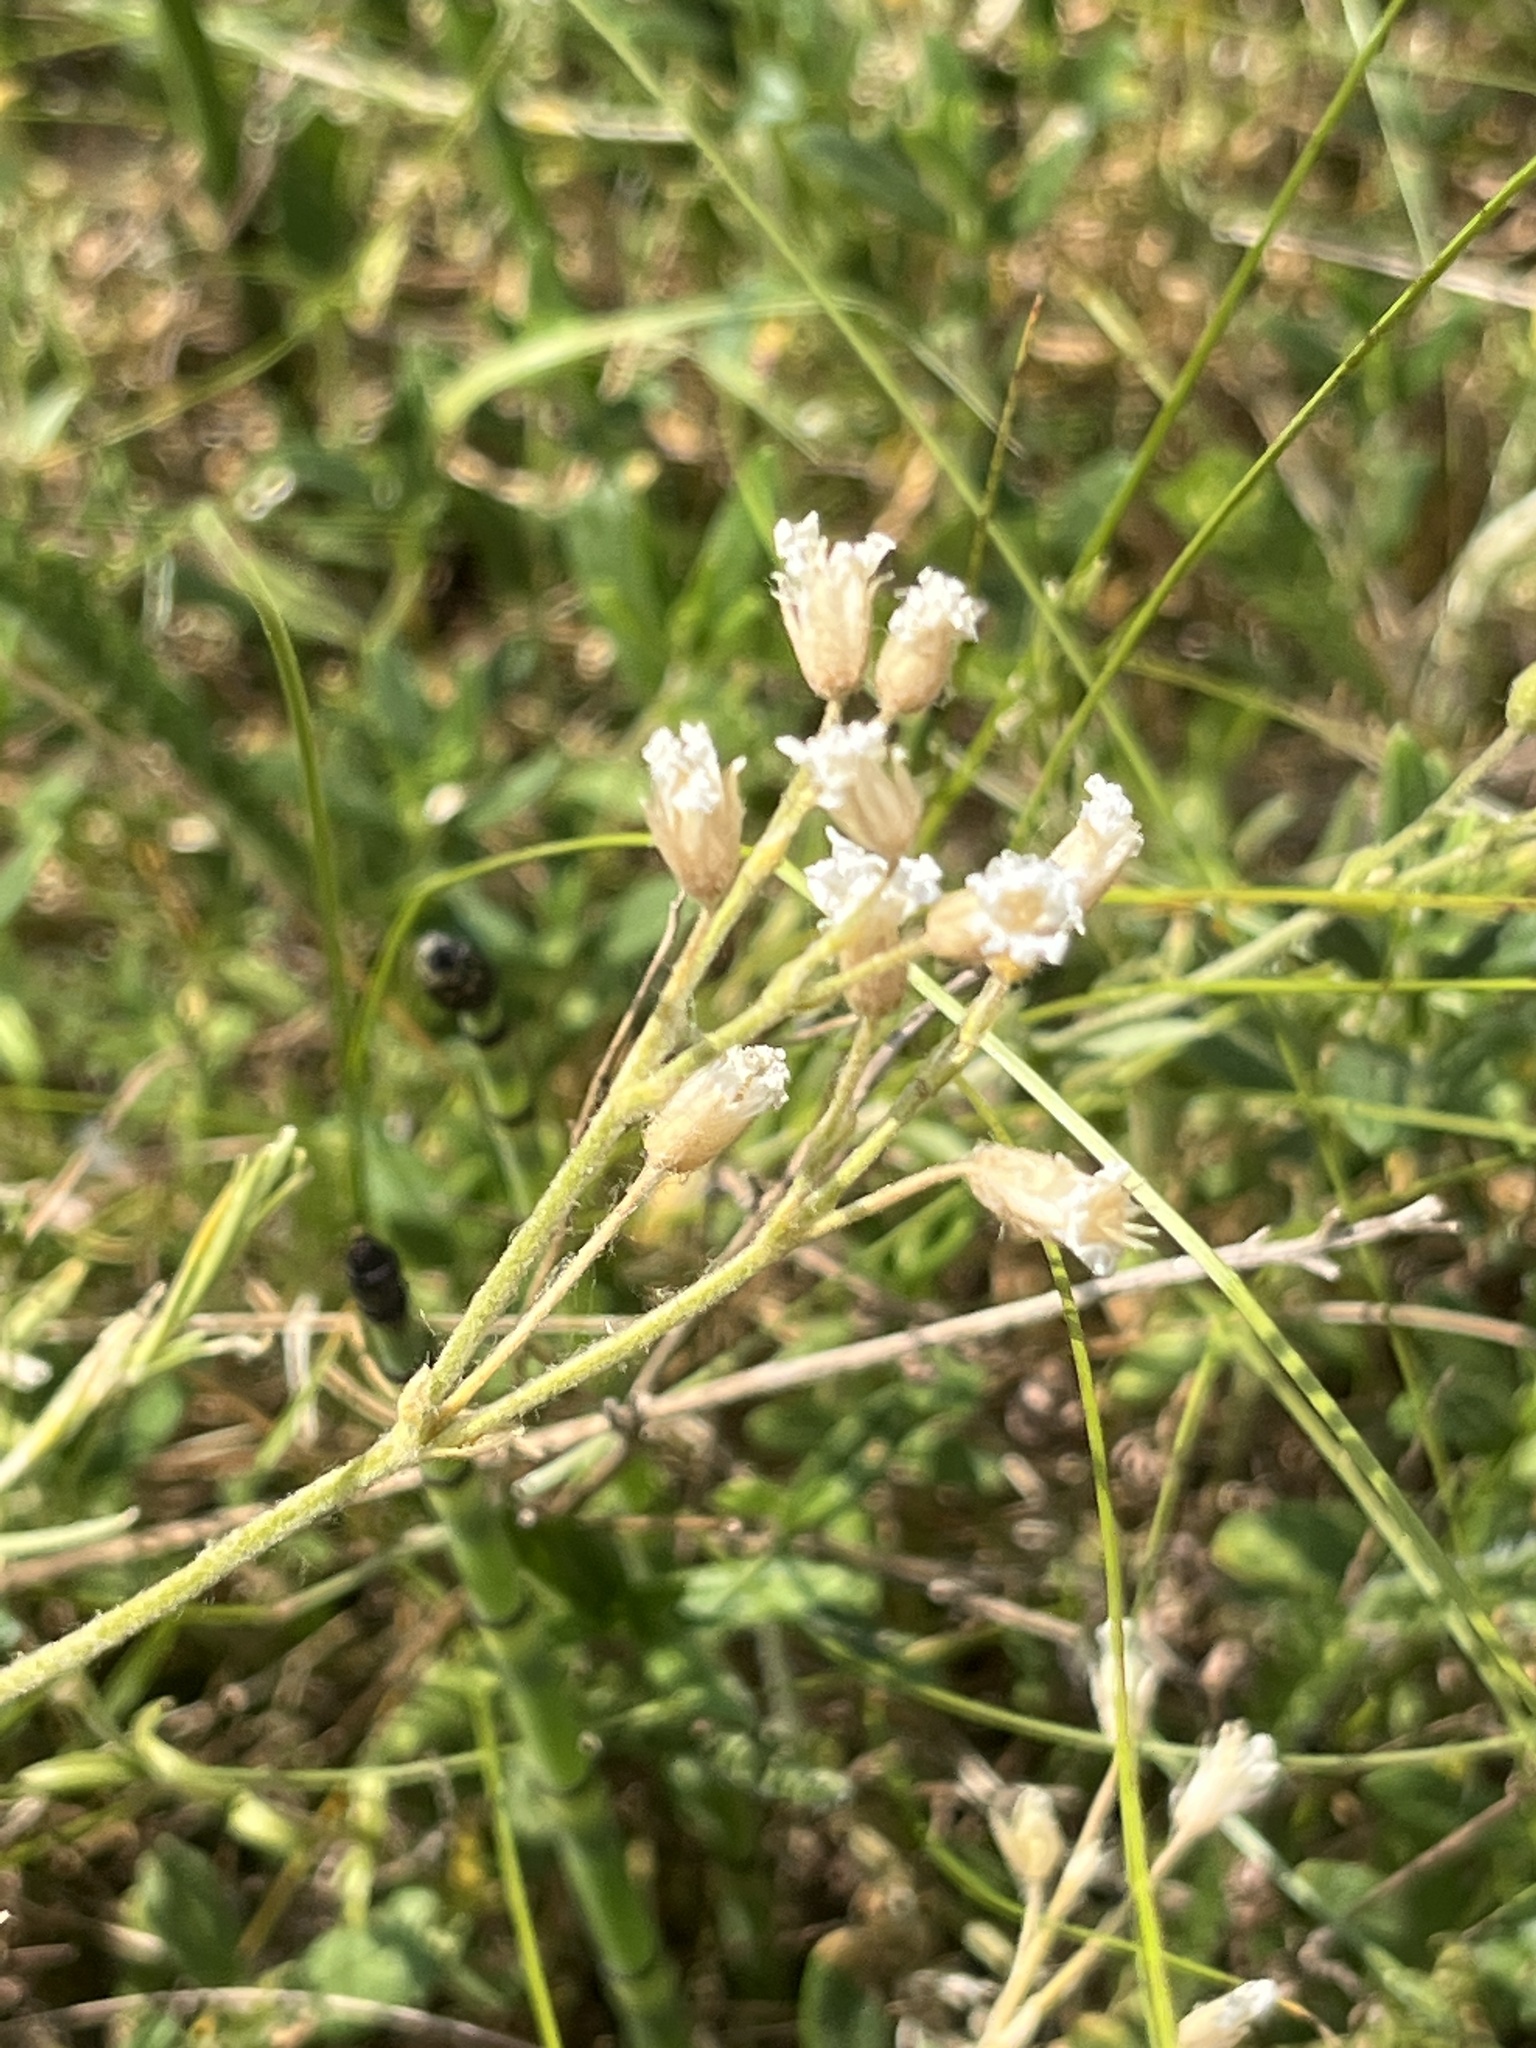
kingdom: Plantae
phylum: Tracheophyta
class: Magnoliopsida
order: Caryophyllales
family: Caryophyllaceae
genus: Cerastium
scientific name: Cerastium arvense
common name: Field mouse-ear
